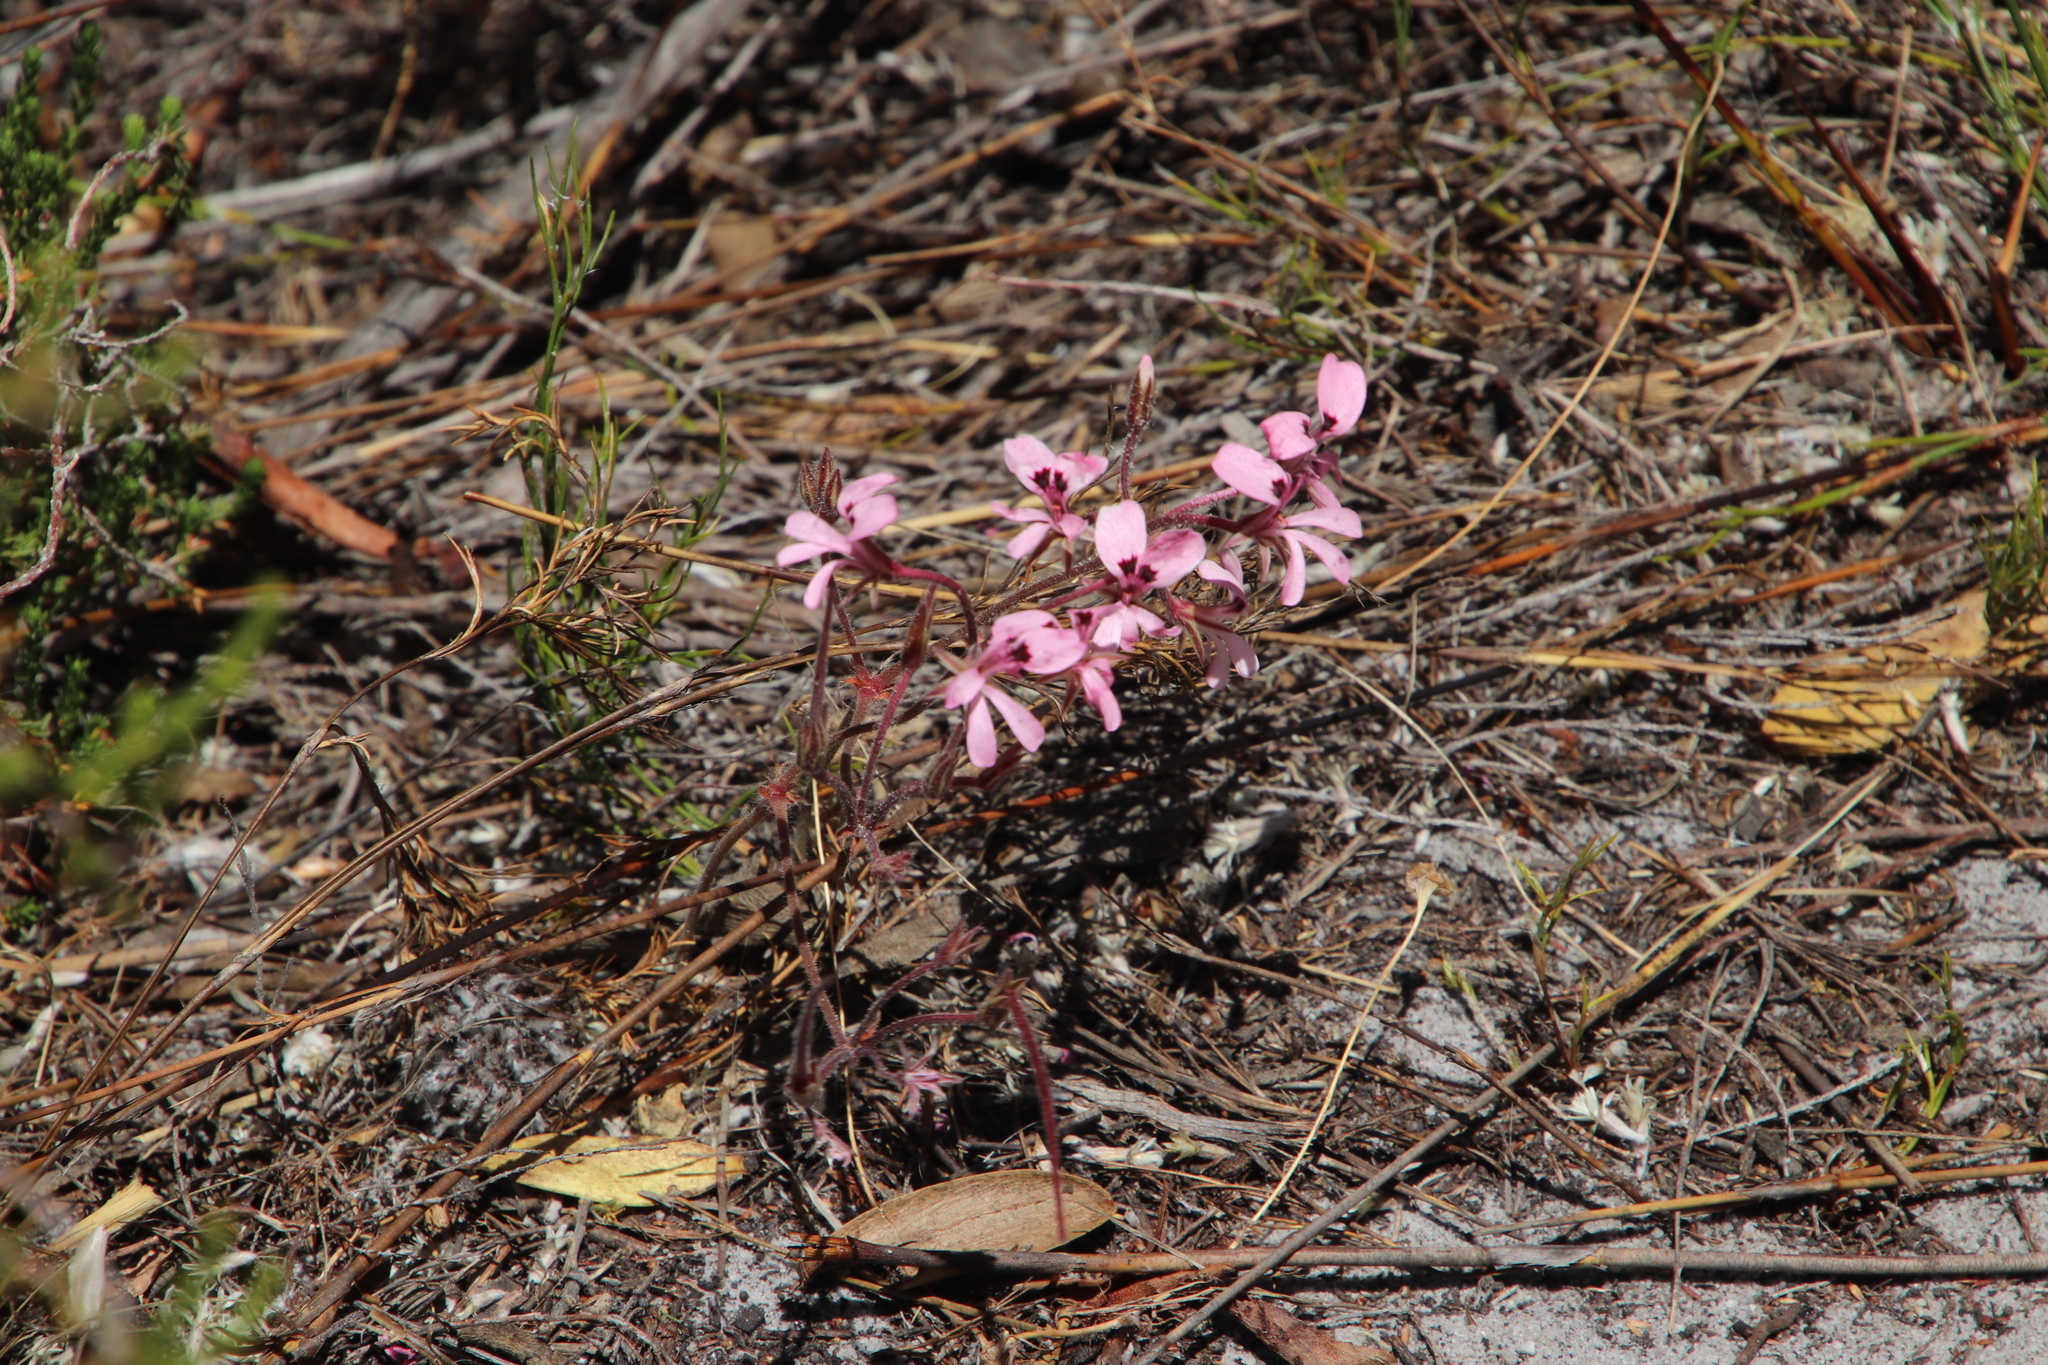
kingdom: Plantae
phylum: Tracheophyta
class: Magnoliopsida
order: Geraniales
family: Geraniaceae
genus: Pelargonium
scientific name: Pelargonium psammophilum
